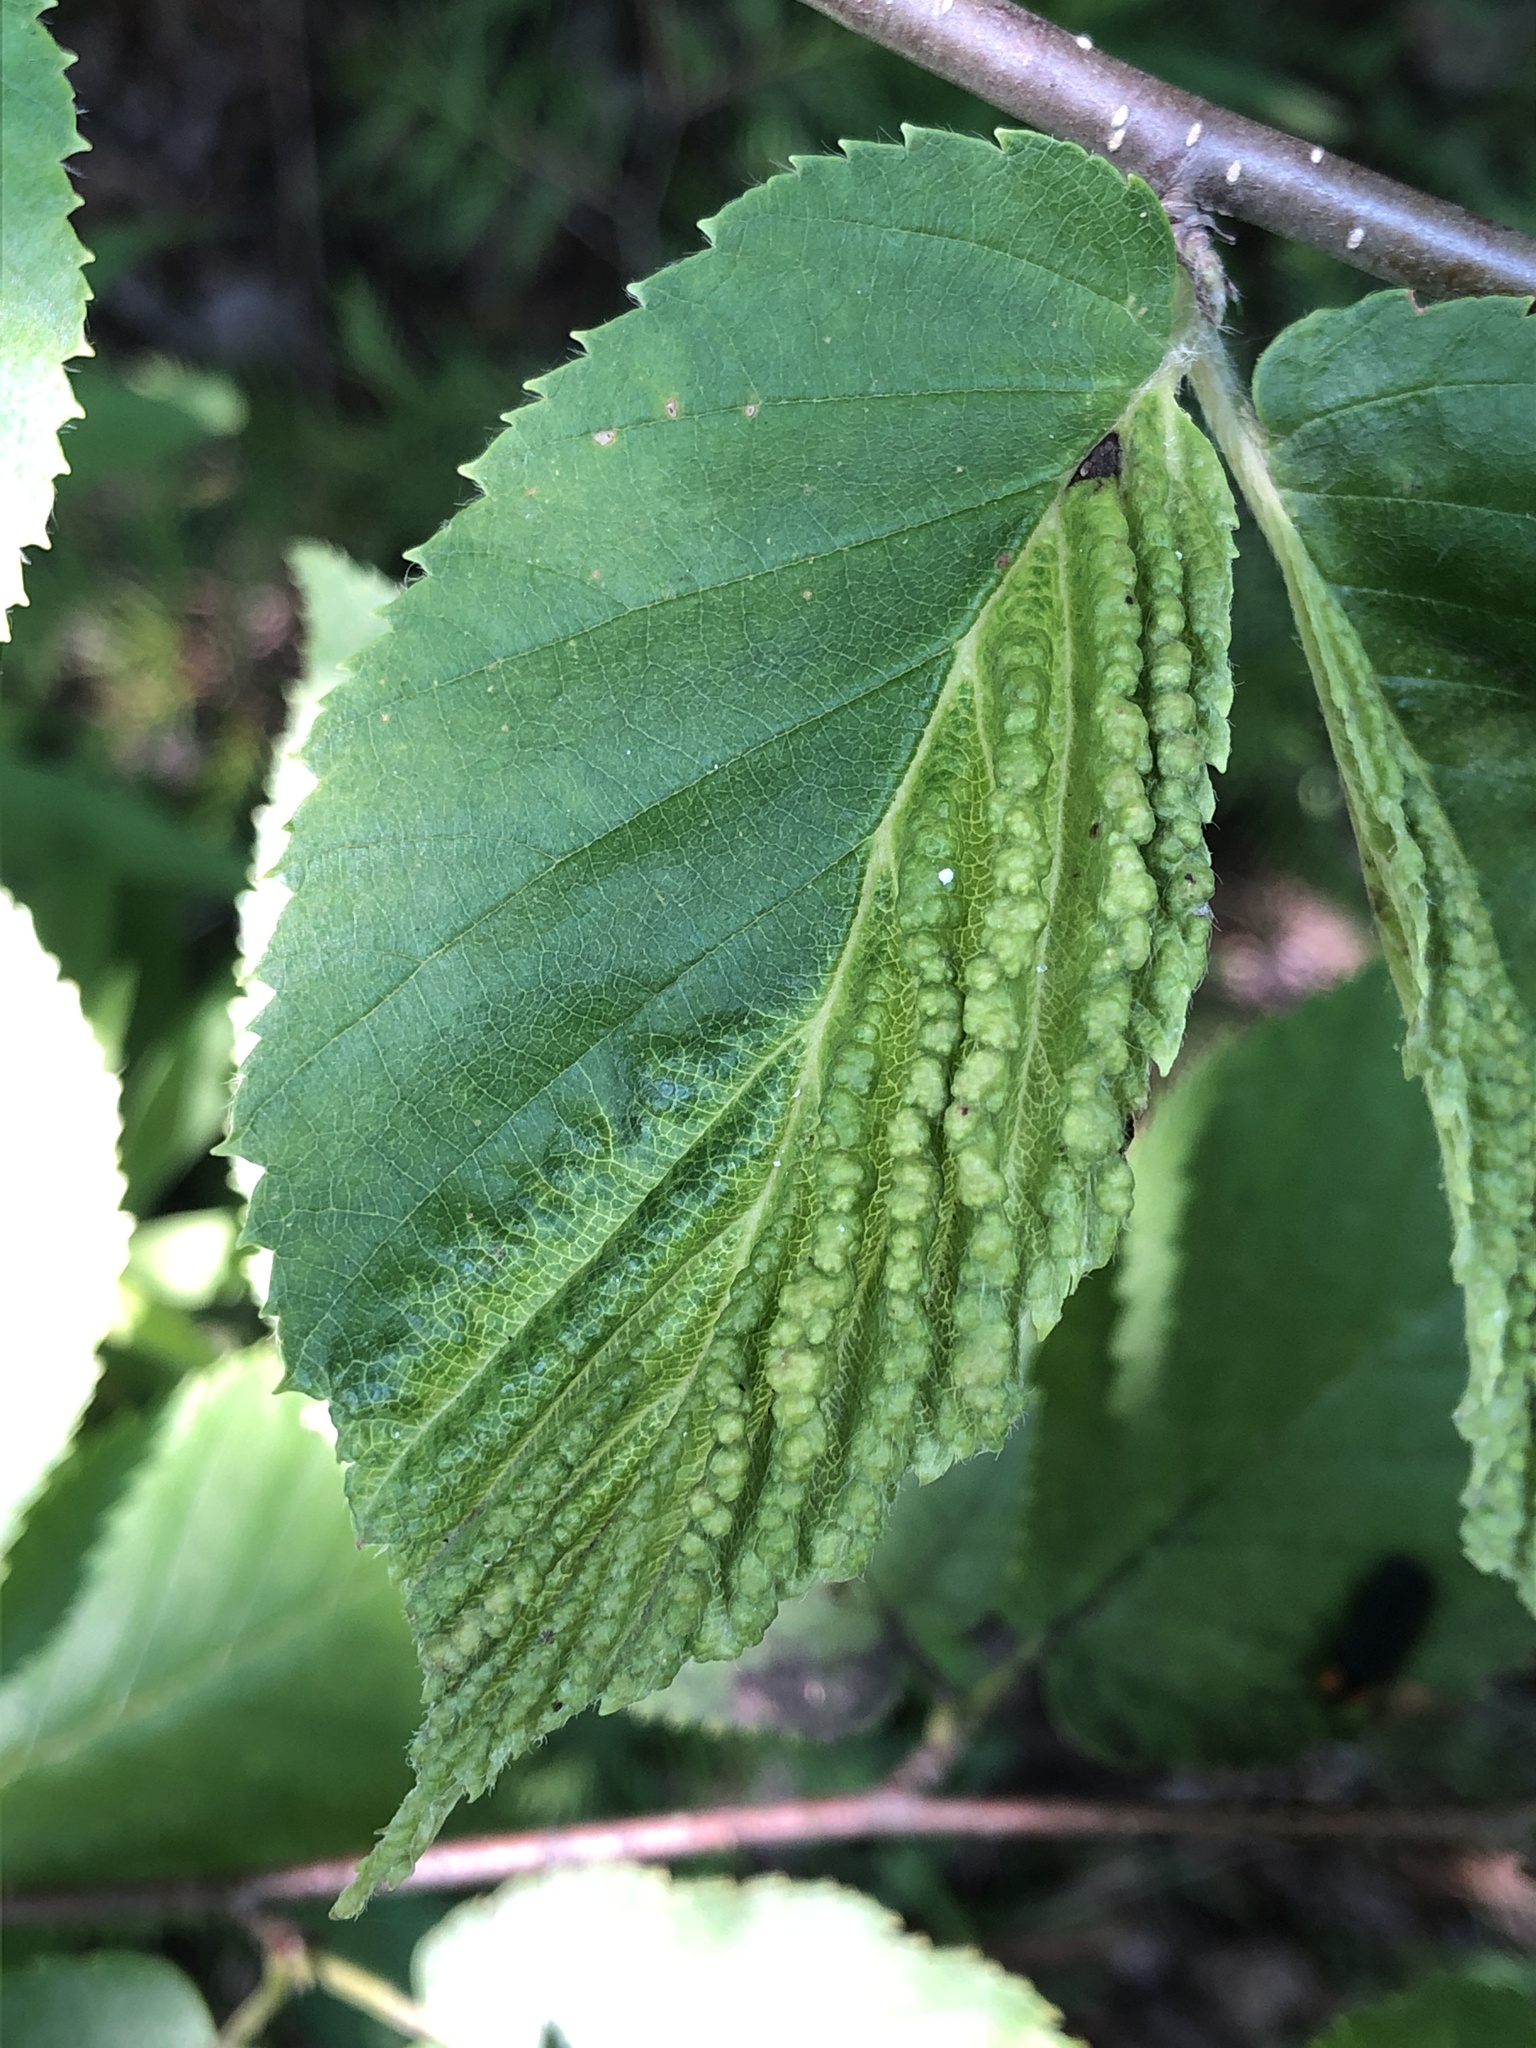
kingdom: Animalia
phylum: Arthropoda
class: Insecta
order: Hemiptera
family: Aphididae
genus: Hamamelistes
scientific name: Hamamelistes spinosus
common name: Witch hazel gall aphid
